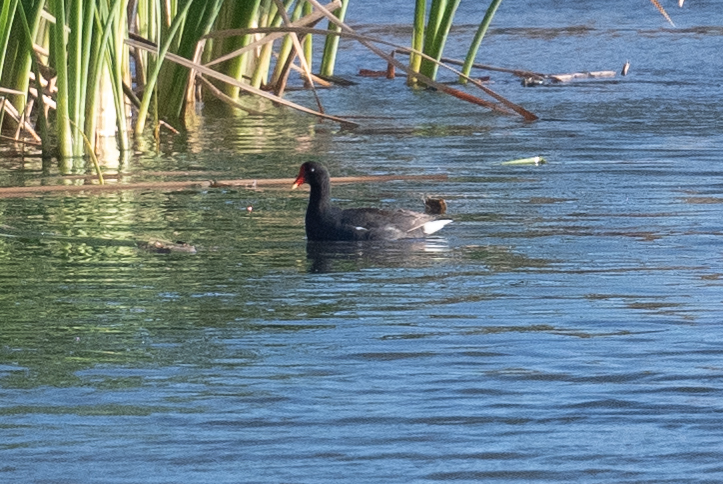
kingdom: Animalia
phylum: Chordata
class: Aves
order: Gruiformes
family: Rallidae
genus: Gallinula
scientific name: Gallinula chloropus
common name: Common moorhen
